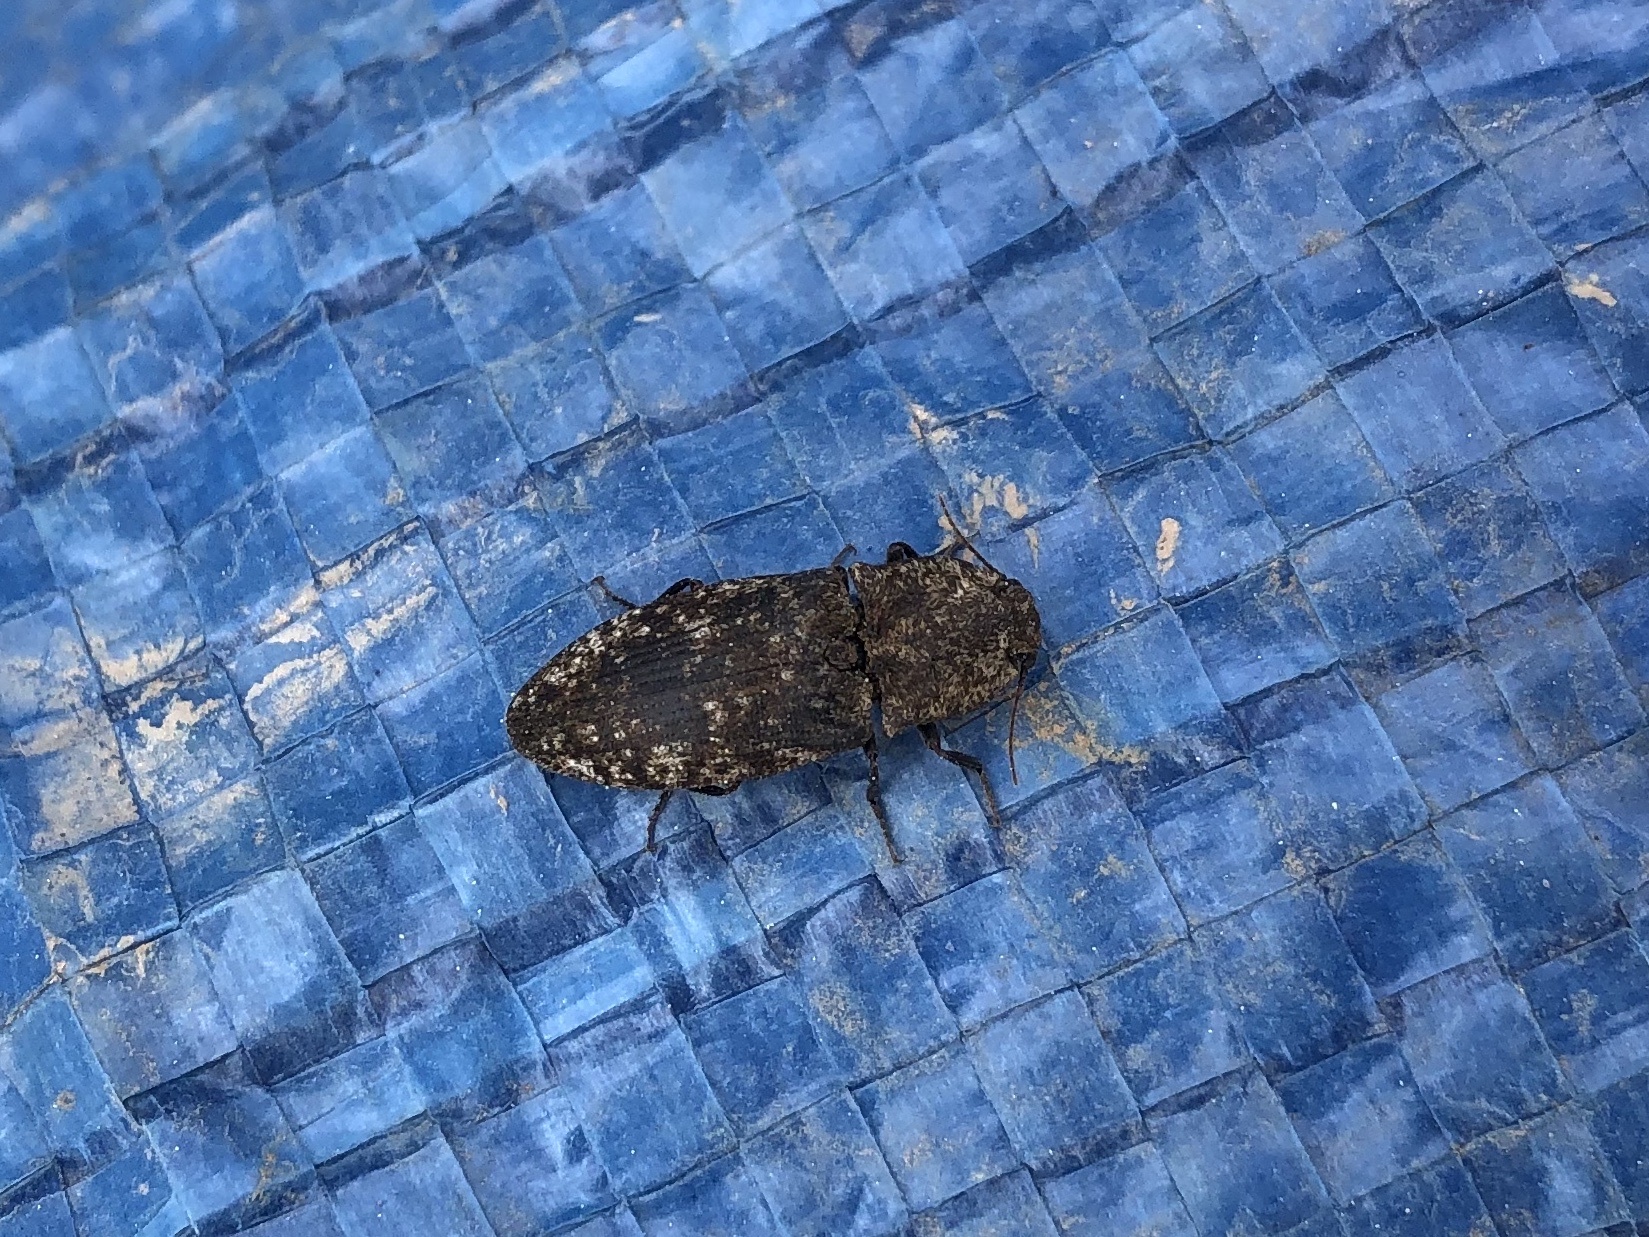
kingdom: Animalia
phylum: Arthropoda
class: Insecta
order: Coleoptera
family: Elateridae
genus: Agrypnus
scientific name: Agrypnus murinus
